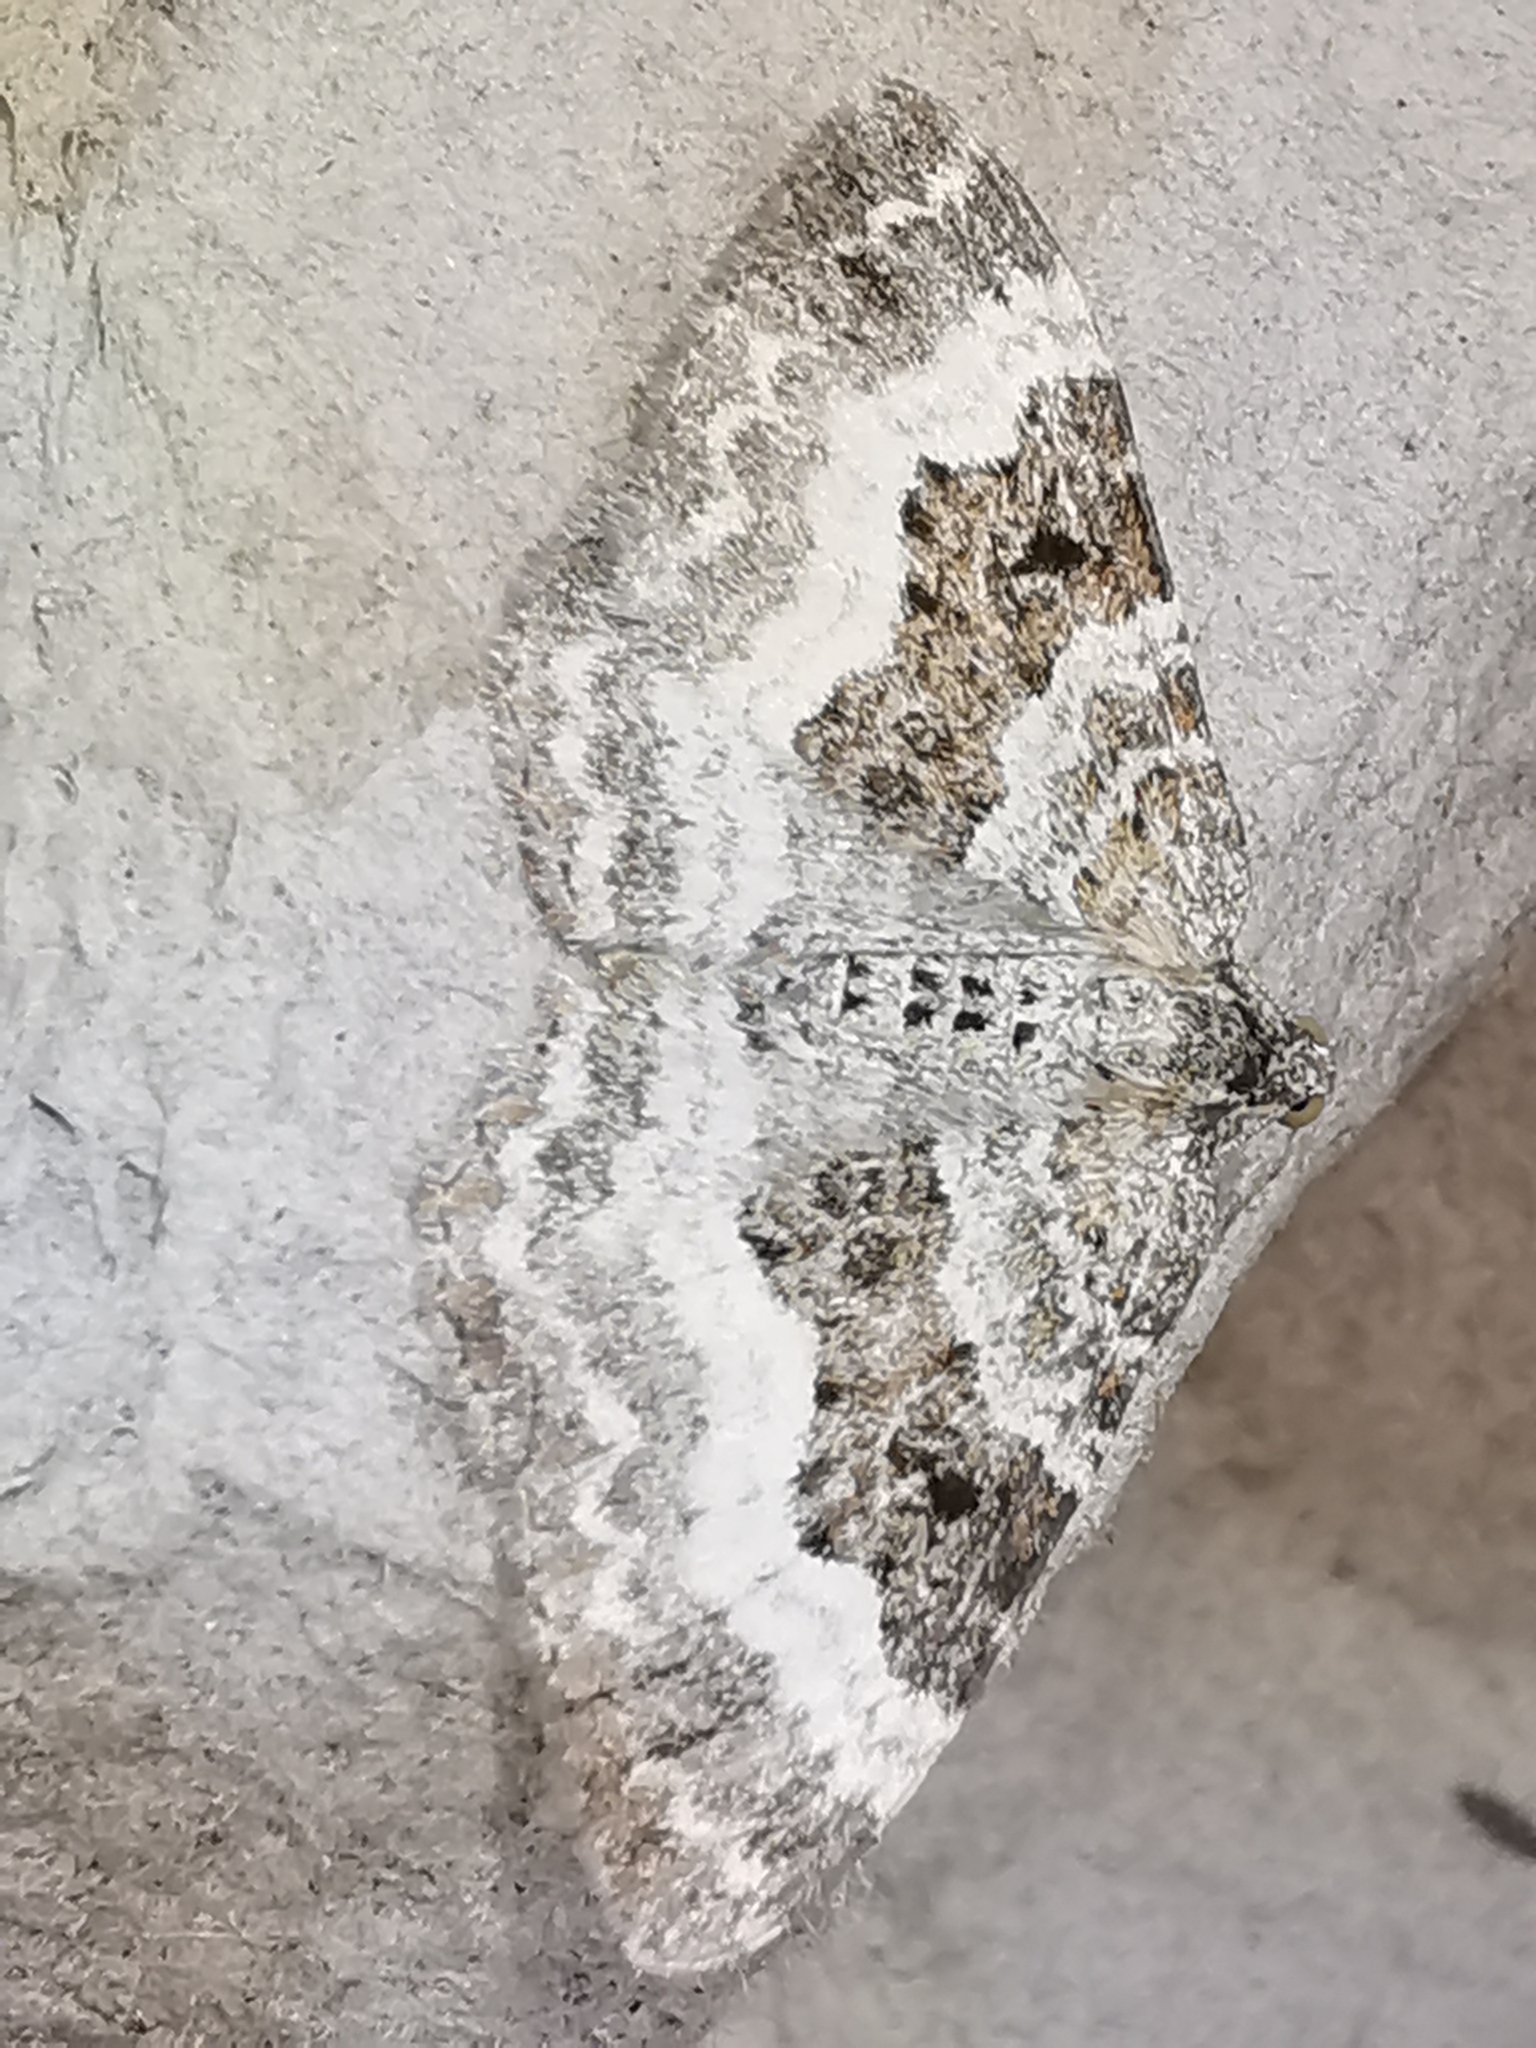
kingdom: Animalia
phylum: Arthropoda
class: Insecta
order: Lepidoptera
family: Geometridae
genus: Epirrhoe
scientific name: Epirrhoe alternata
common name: Common carpet
